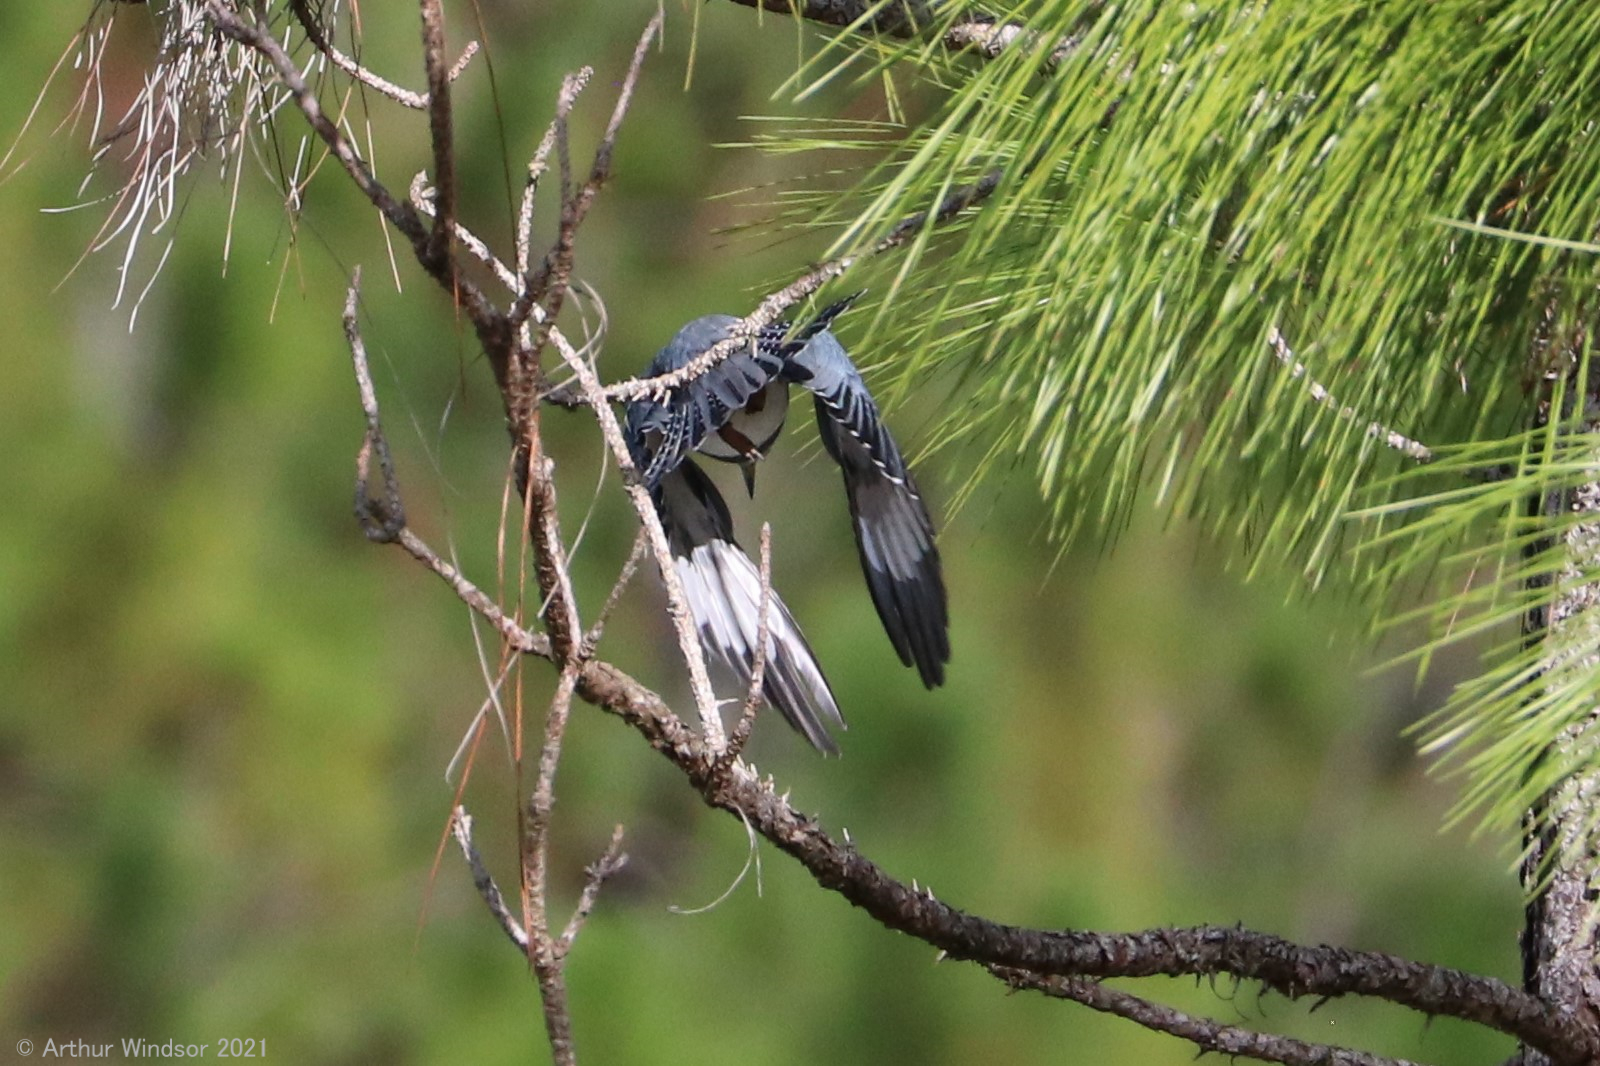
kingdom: Animalia
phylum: Chordata
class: Aves
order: Coraciiformes
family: Alcedinidae
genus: Megaceryle
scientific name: Megaceryle alcyon
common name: Belted kingfisher
